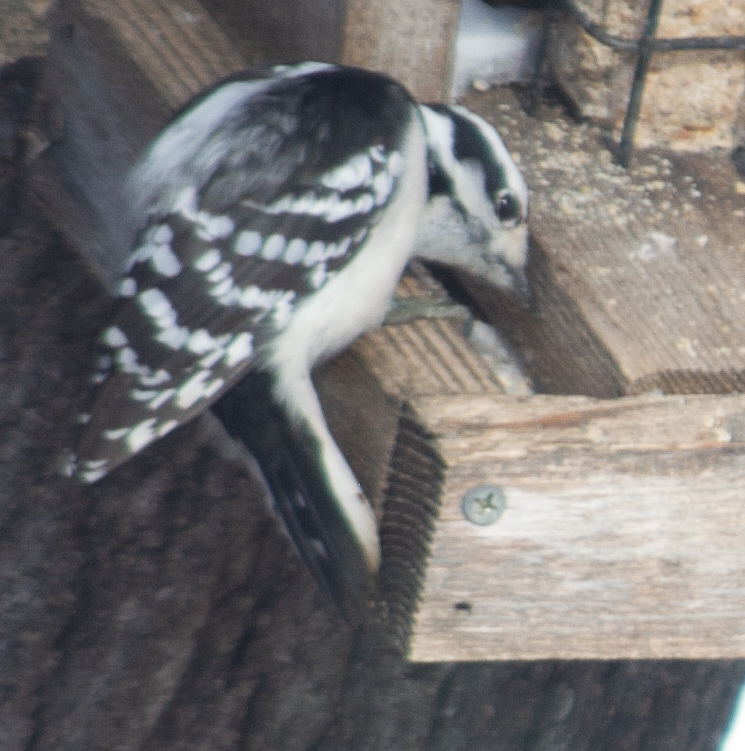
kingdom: Animalia
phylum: Chordata
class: Aves
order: Piciformes
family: Picidae
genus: Dryobates
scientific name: Dryobates pubescens
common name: Downy woodpecker
